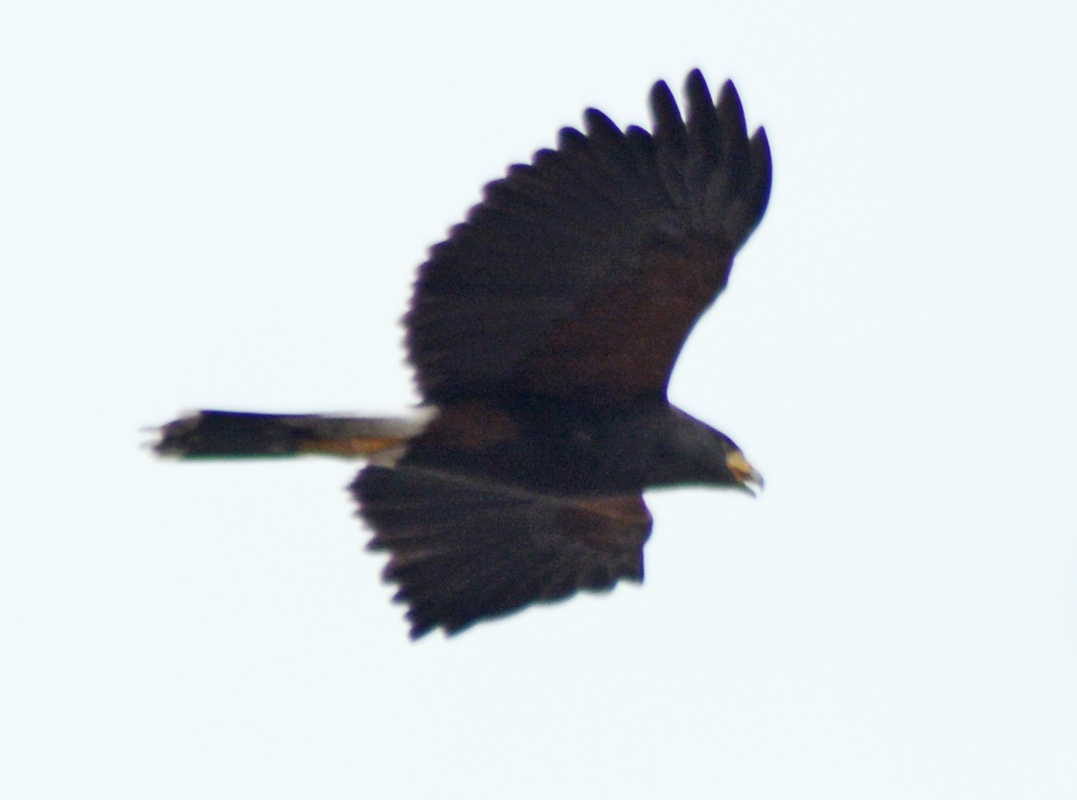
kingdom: Animalia
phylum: Chordata
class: Aves
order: Accipitriformes
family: Accipitridae
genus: Parabuteo
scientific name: Parabuteo unicinctus
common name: Harris's hawk
